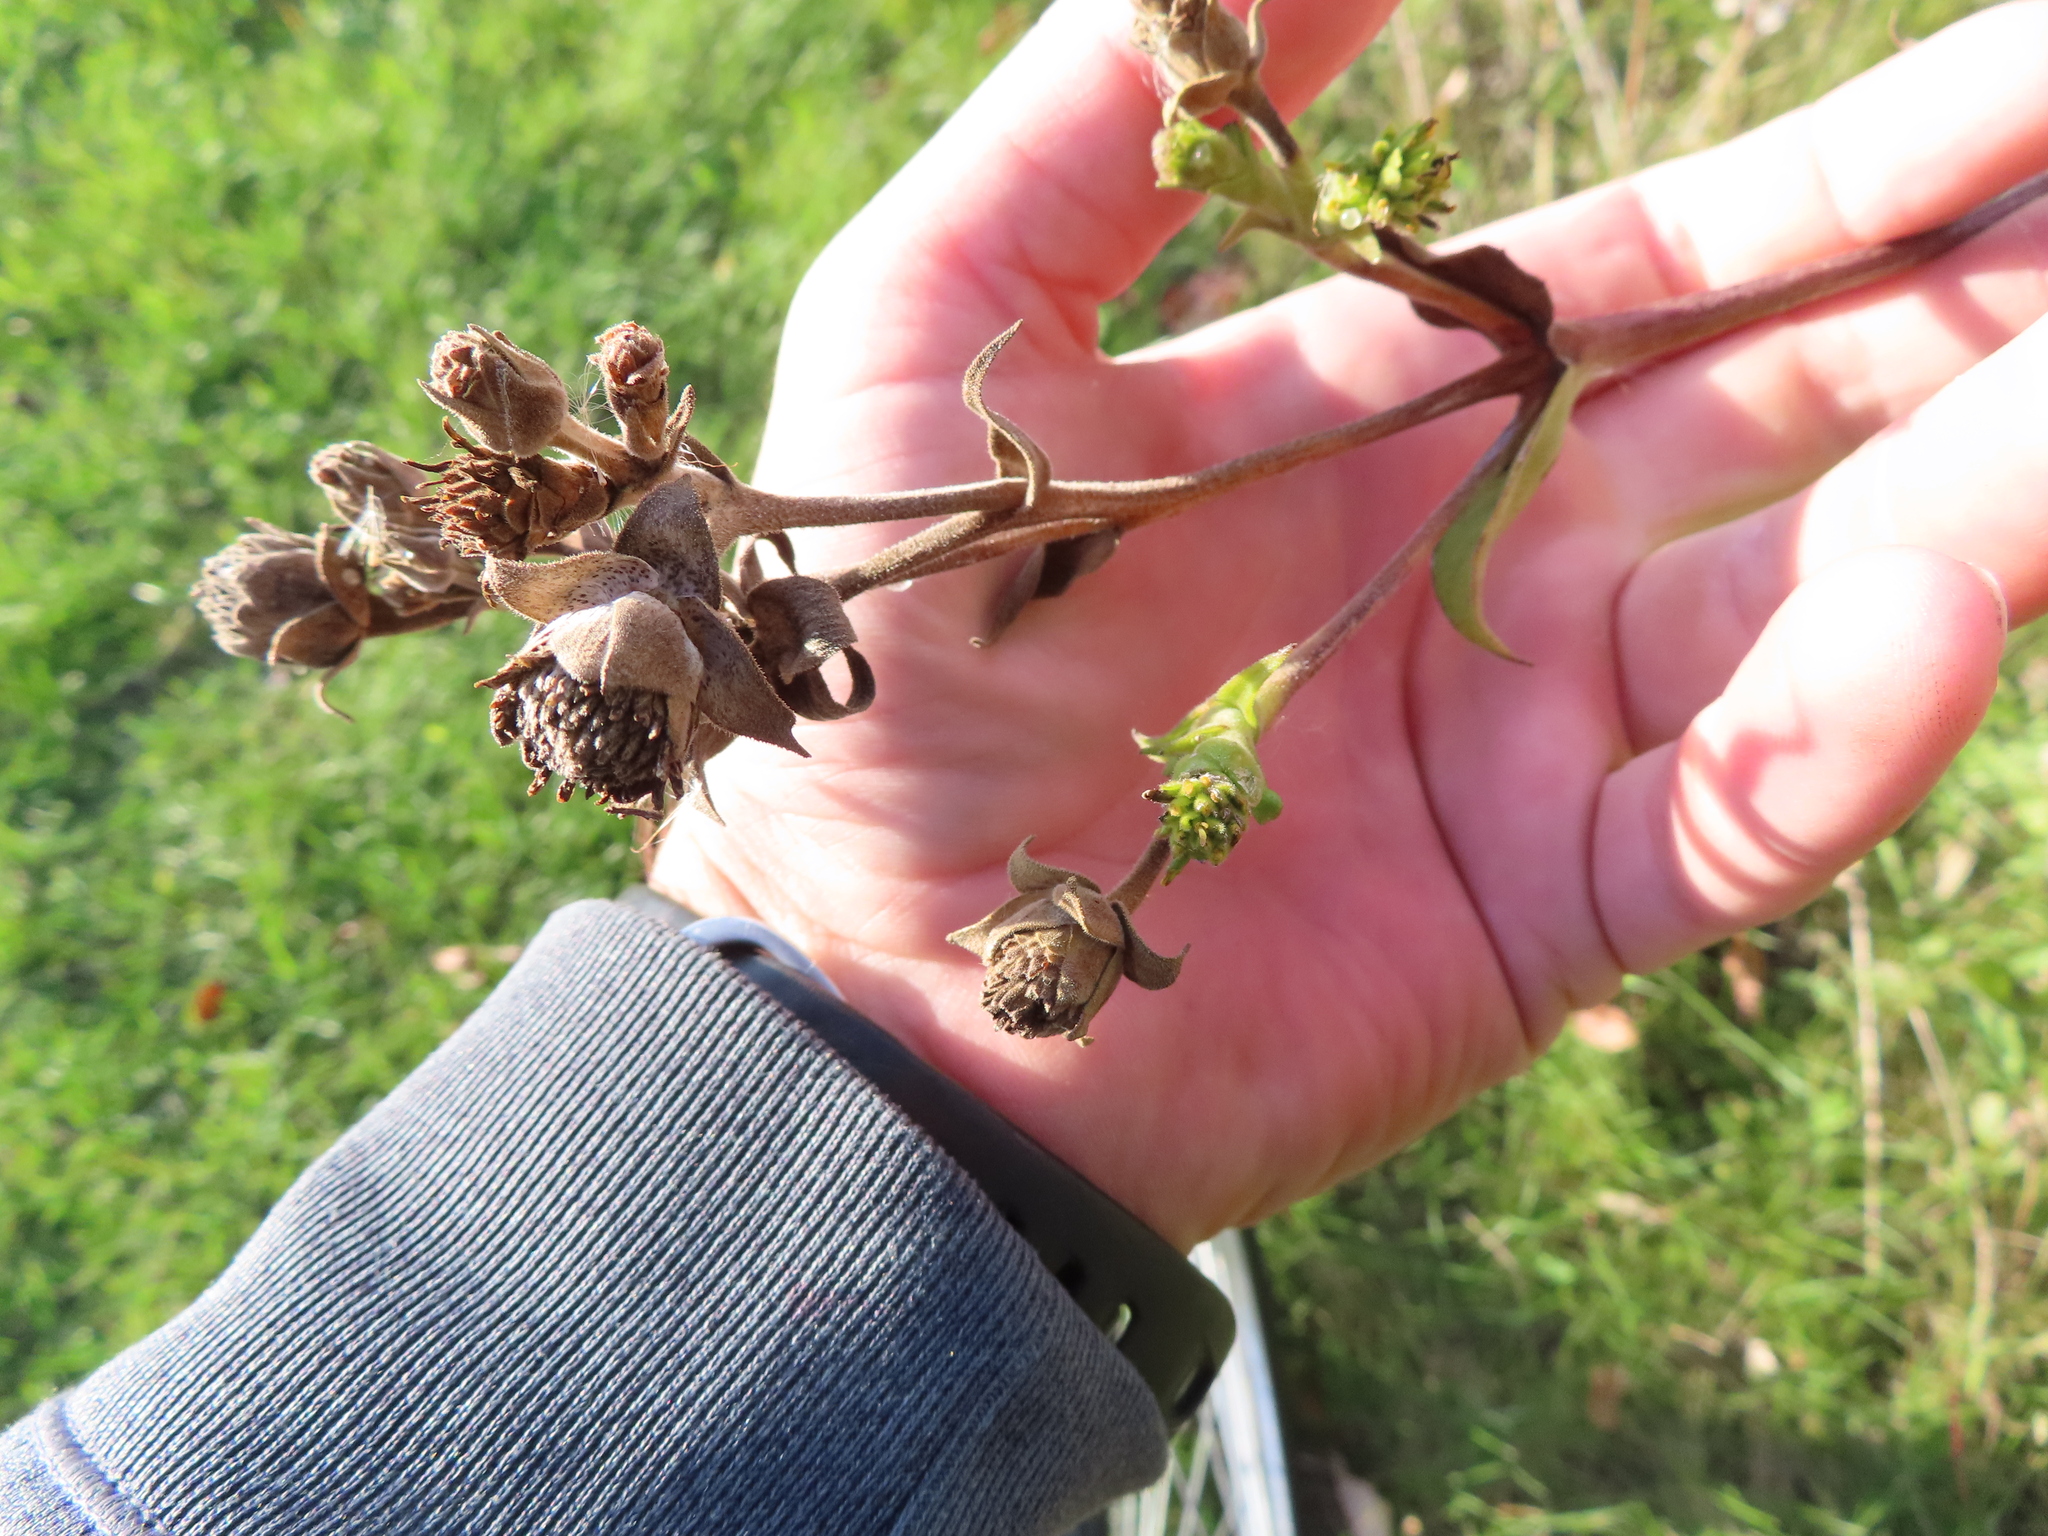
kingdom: Plantae
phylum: Tracheophyta
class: Magnoliopsida
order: Asterales
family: Asteraceae
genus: Silphium
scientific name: Silphium integrifolium
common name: Whole-leaf rosinweed
